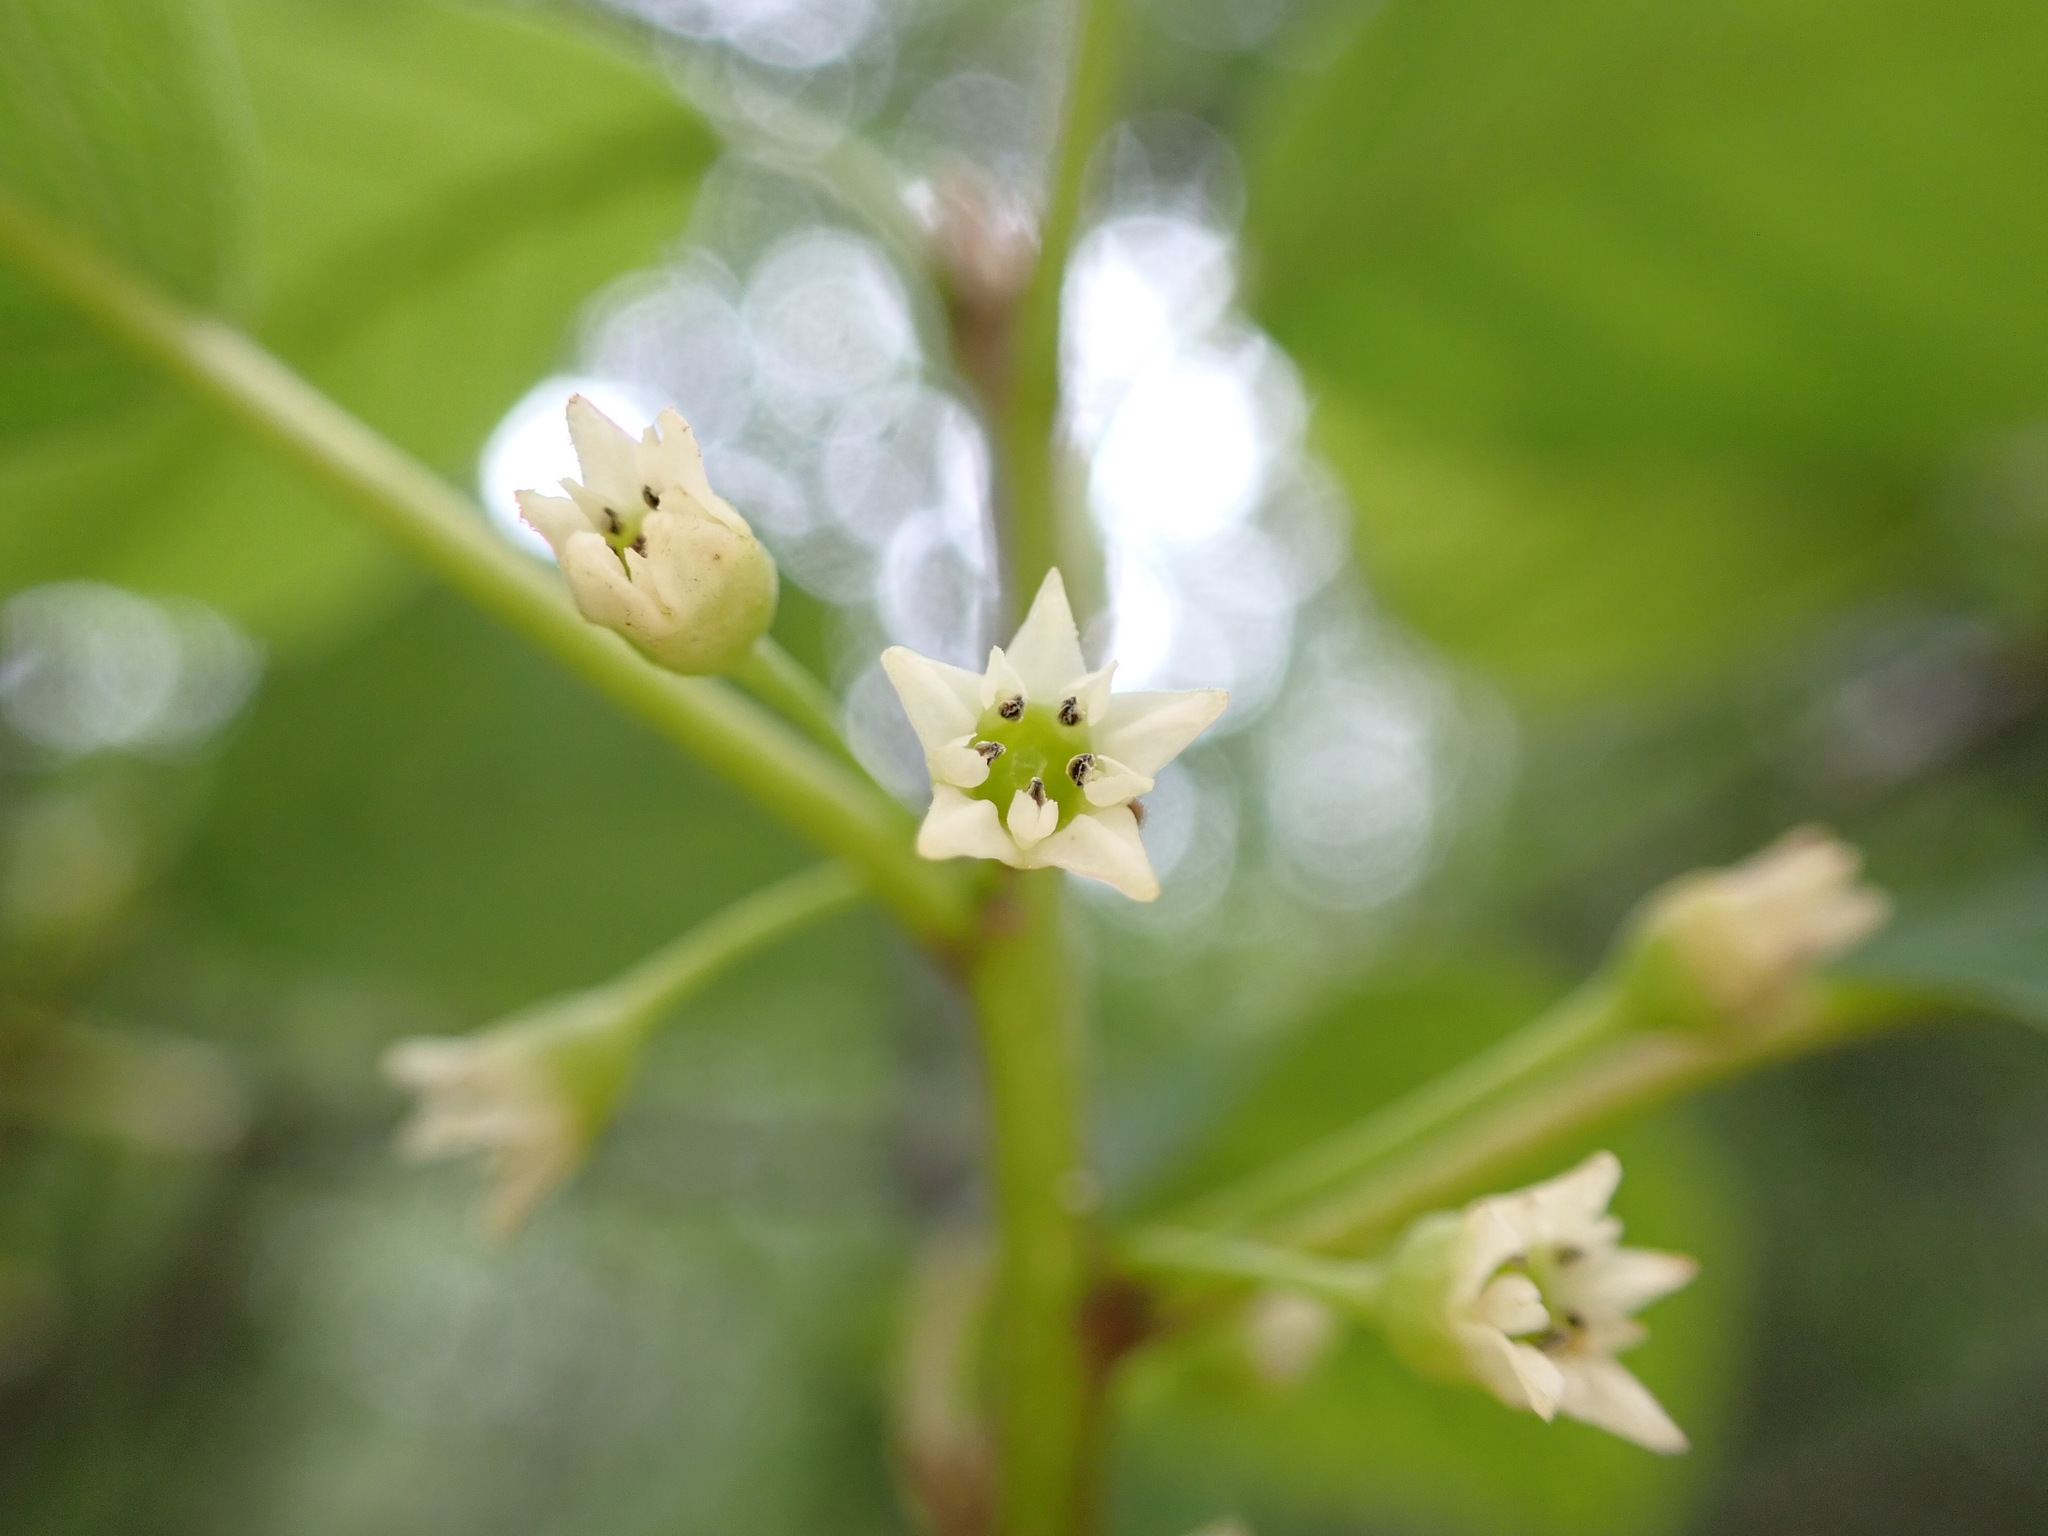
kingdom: Plantae
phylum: Tracheophyta
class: Magnoliopsida
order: Rosales
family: Rhamnaceae
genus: Frangula
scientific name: Frangula alnus
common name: Alder buckthorn
